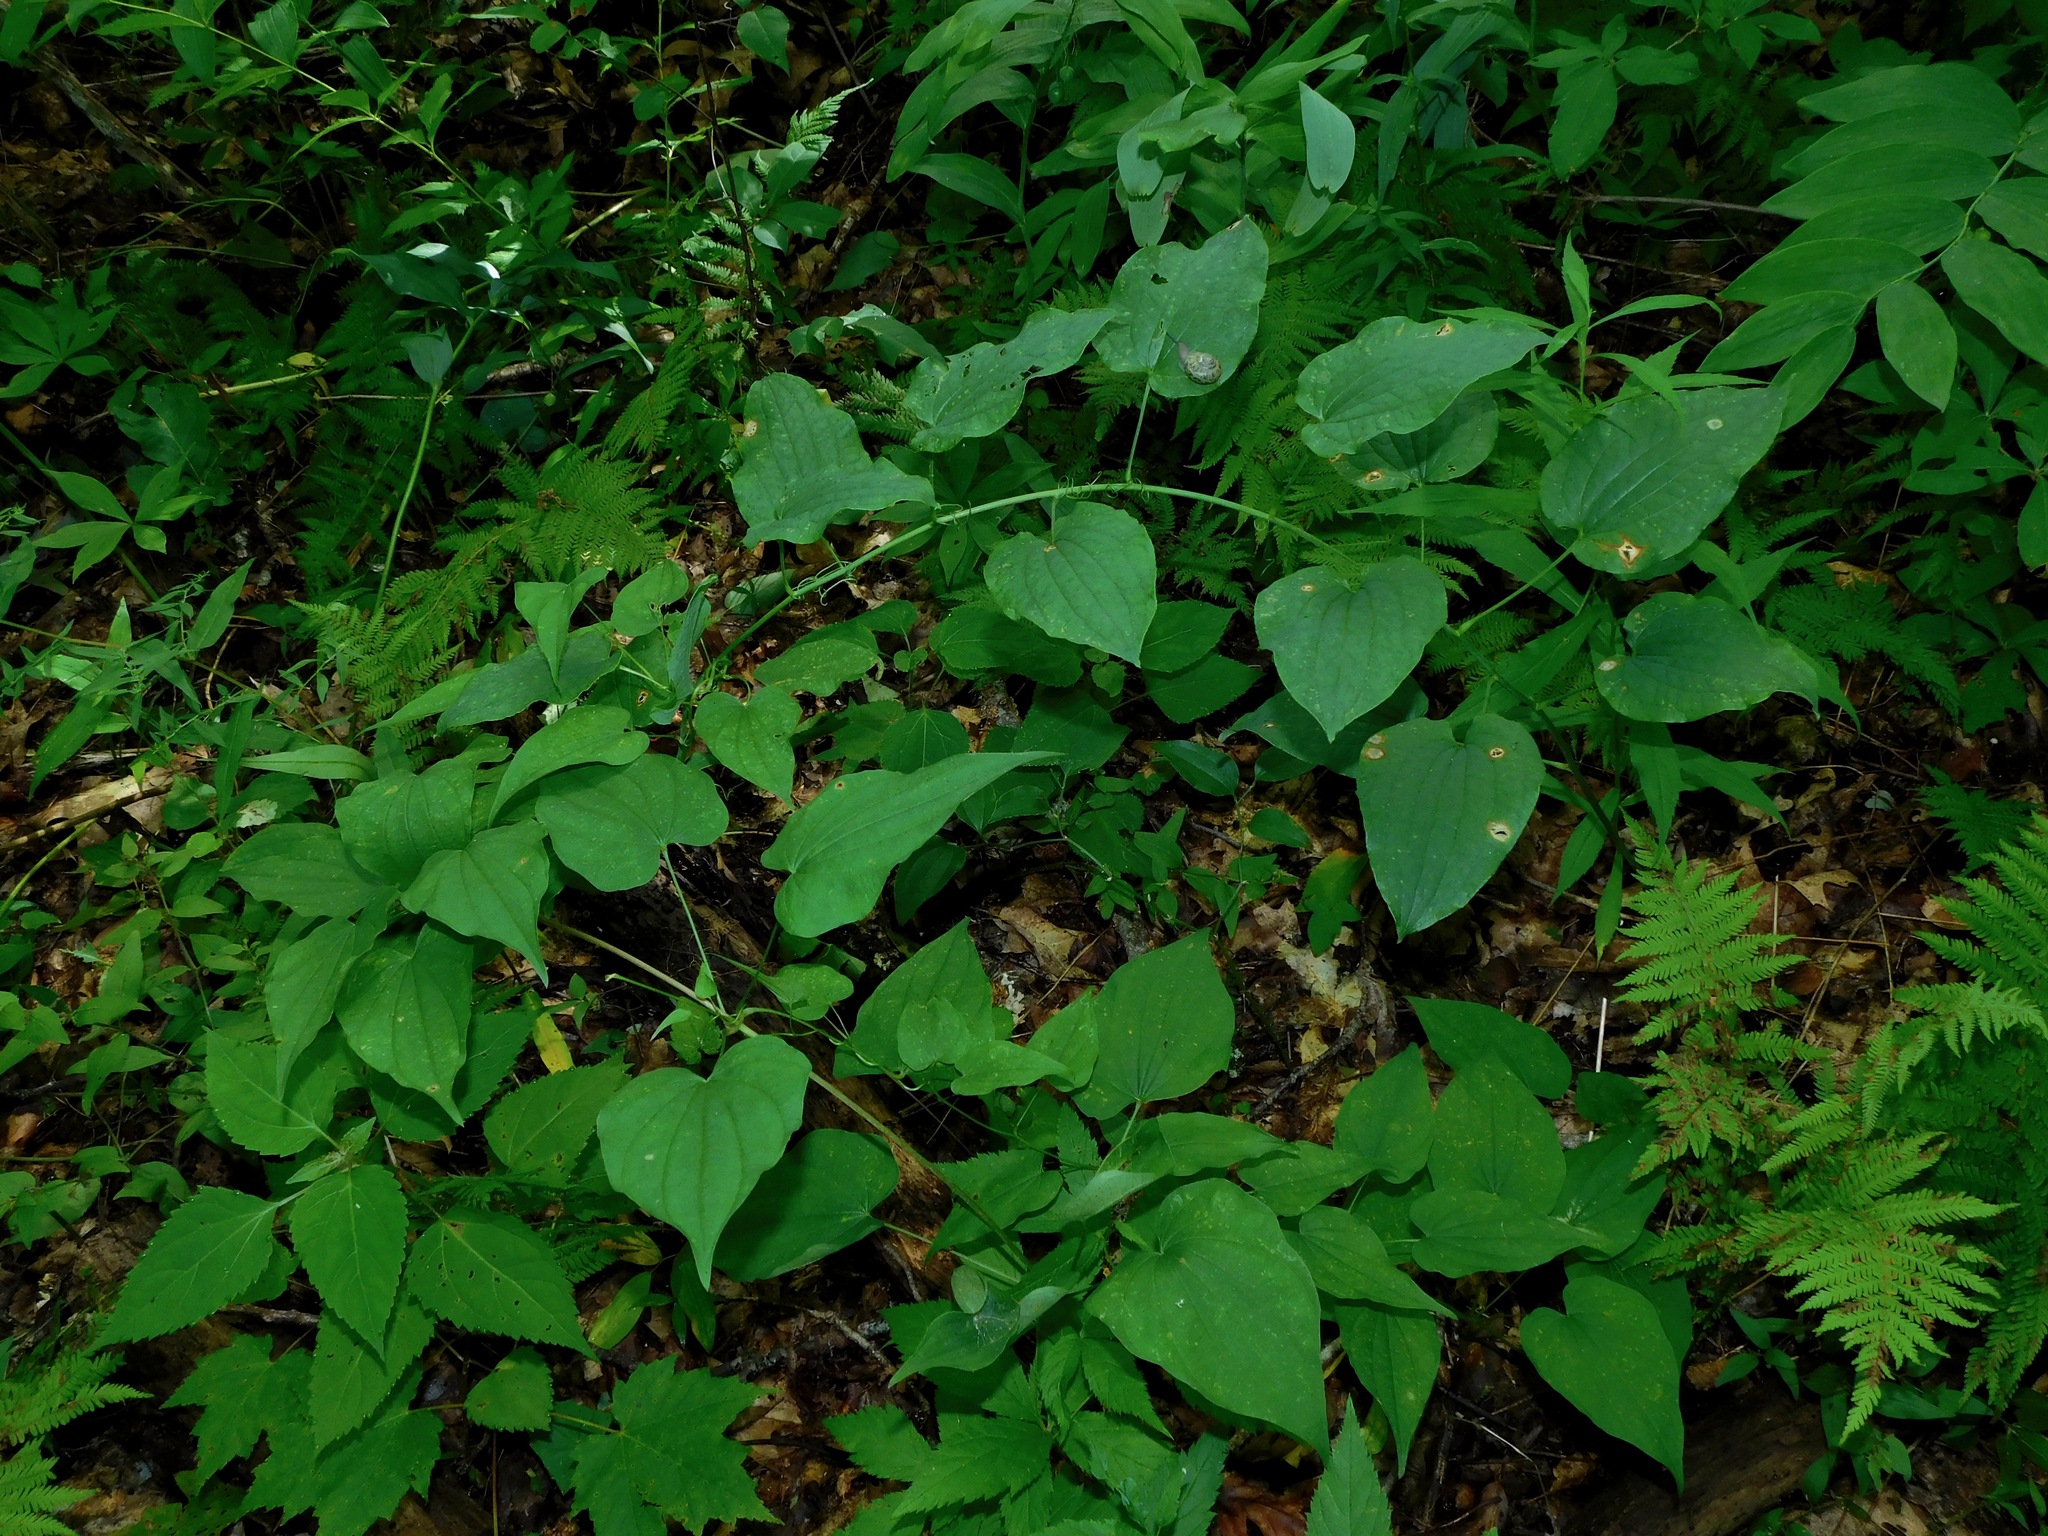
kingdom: Plantae
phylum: Tracheophyta
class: Liliopsida
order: Liliales
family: Smilacaceae
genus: Smilax
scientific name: Smilax herbacea
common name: Jacob's-ladder
